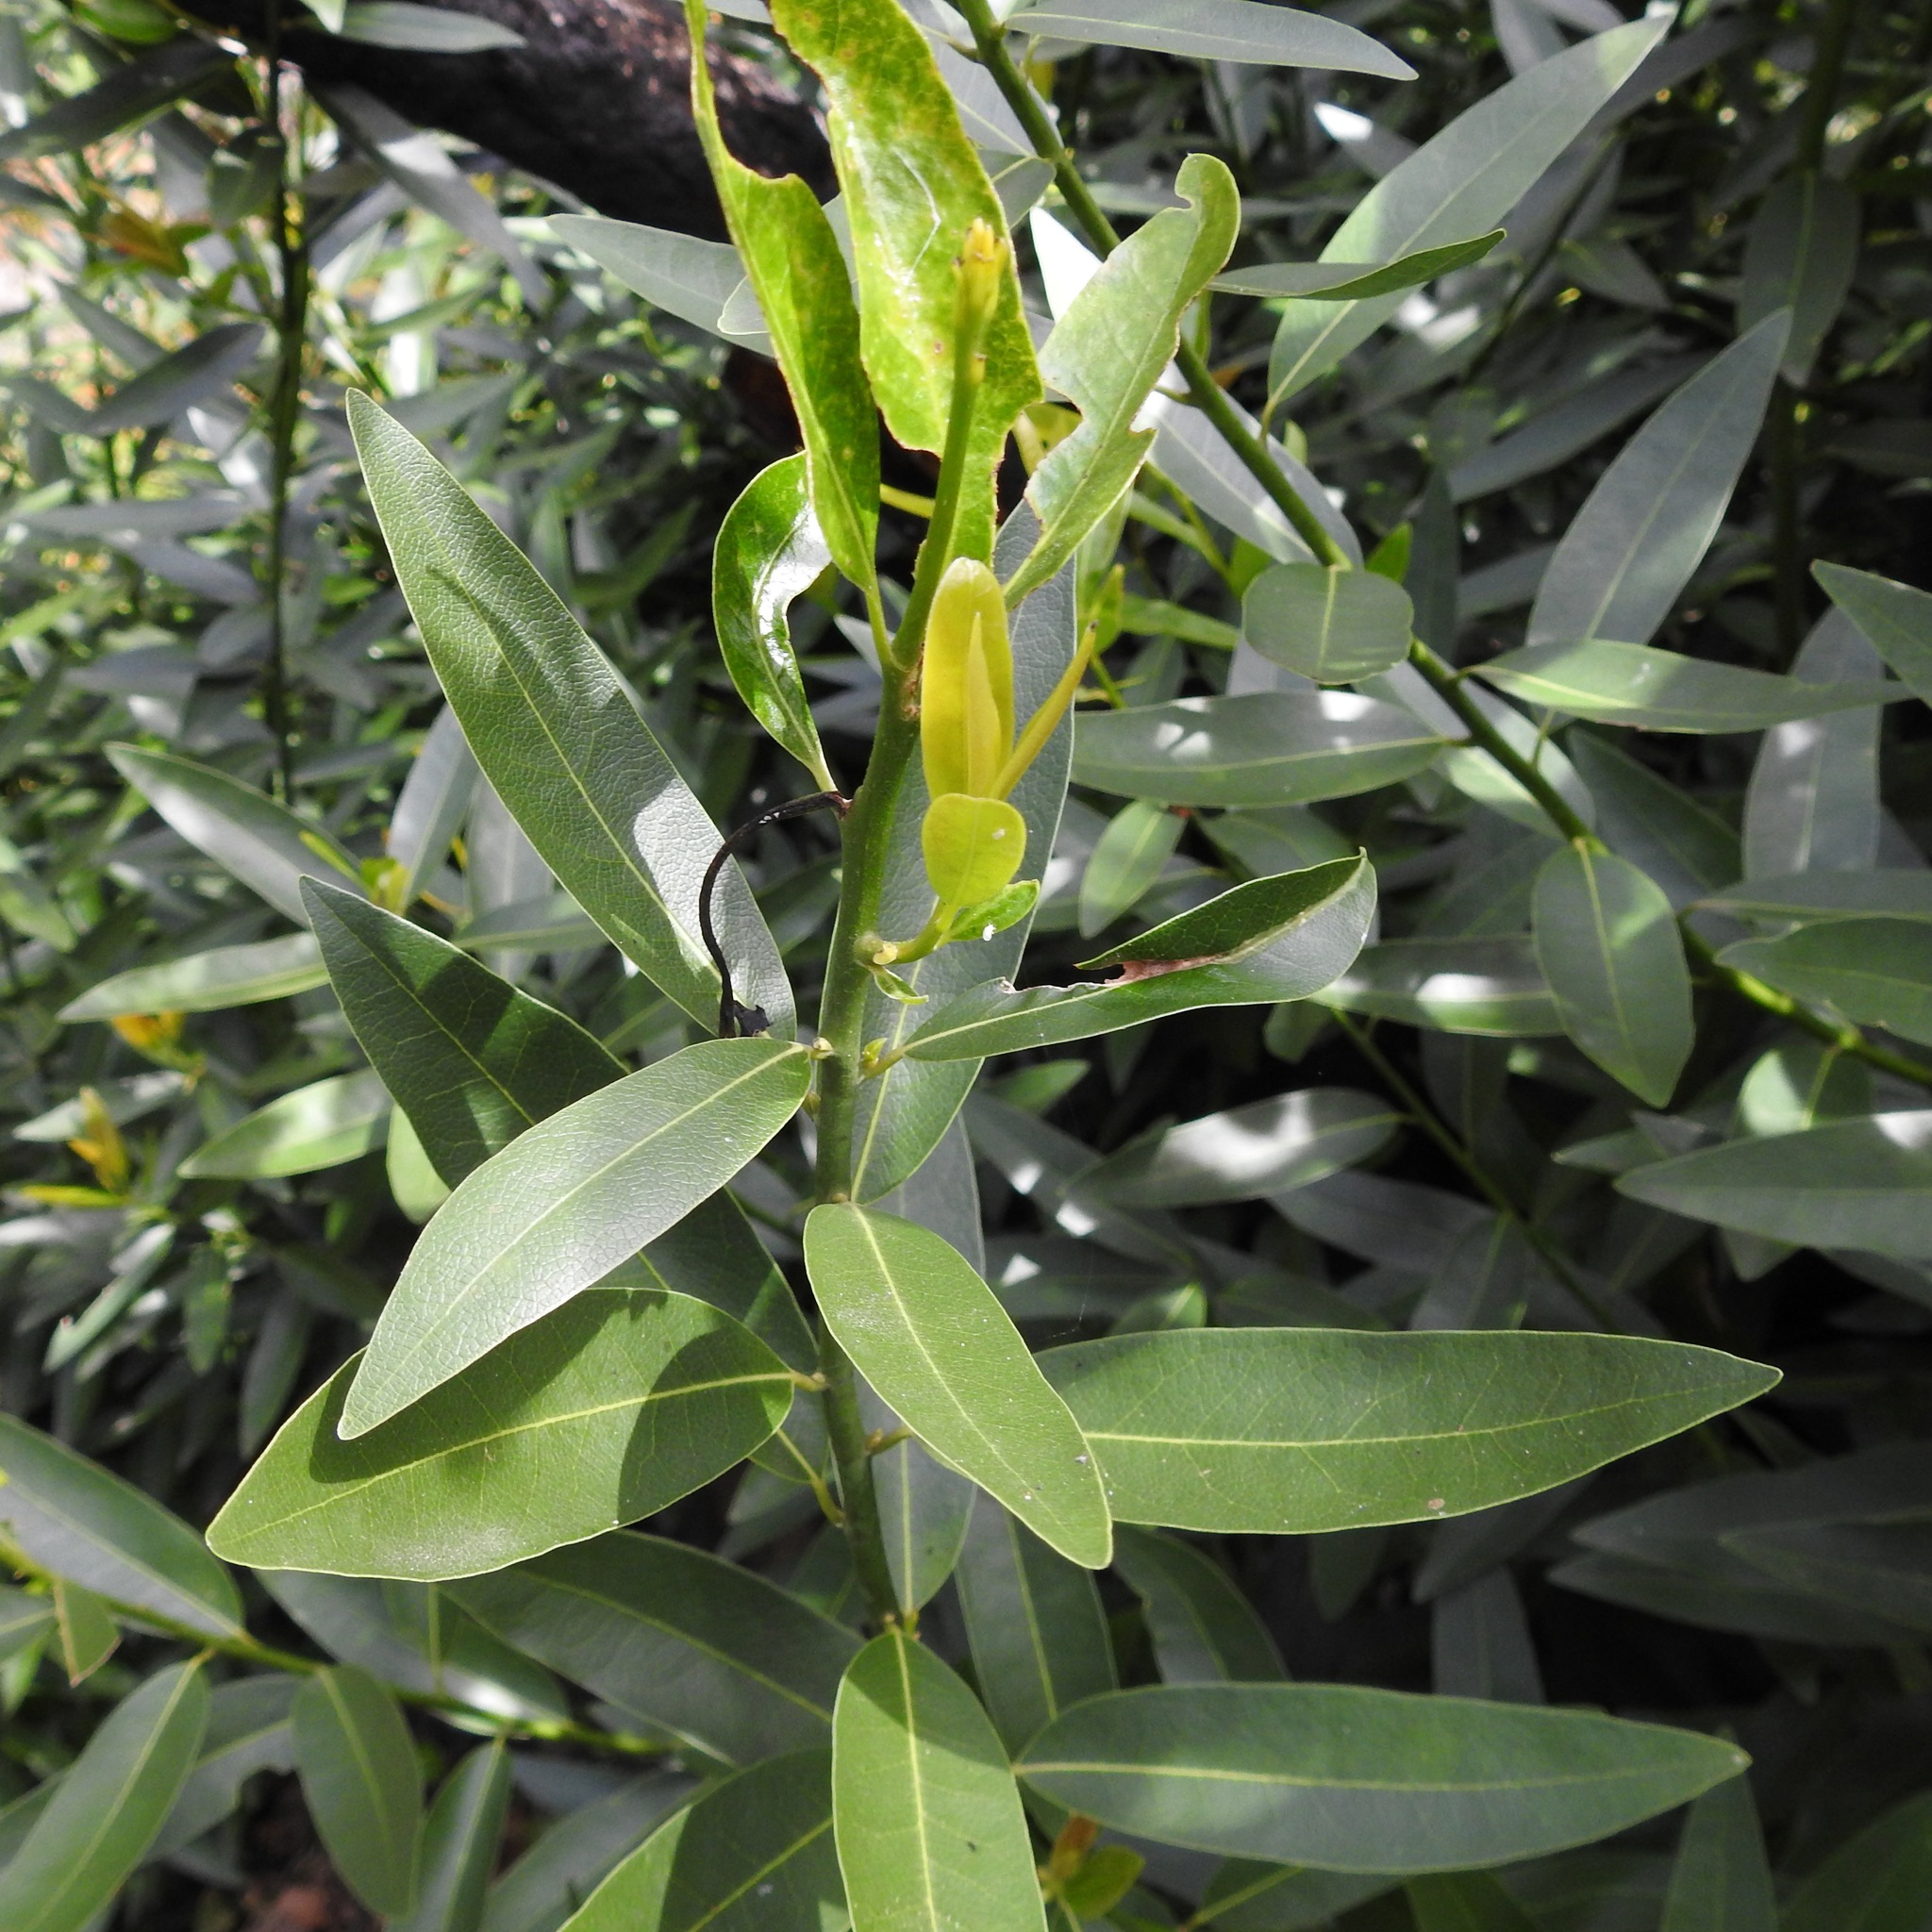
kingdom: Plantae
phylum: Tracheophyta
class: Magnoliopsida
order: Laurales
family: Lauraceae
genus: Umbellularia
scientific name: Umbellularia californica
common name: California bay
